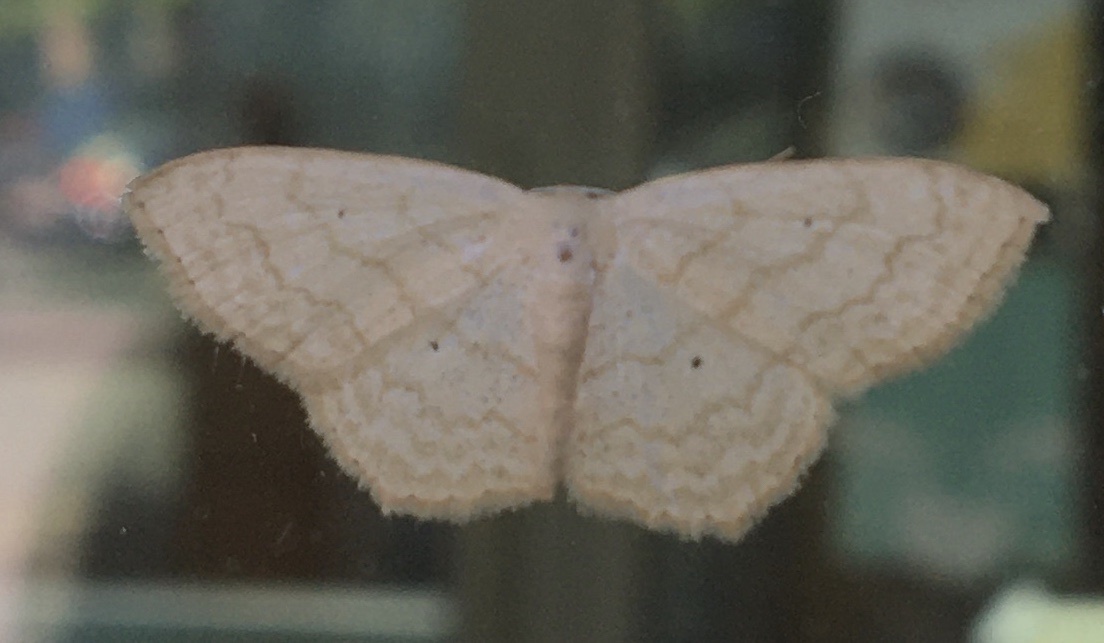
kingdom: Animalia
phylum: Arthropoda
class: Insecta
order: Lepidoptera
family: Geometridae
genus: Scopula
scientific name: Scopula limboundata
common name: Large lace border
